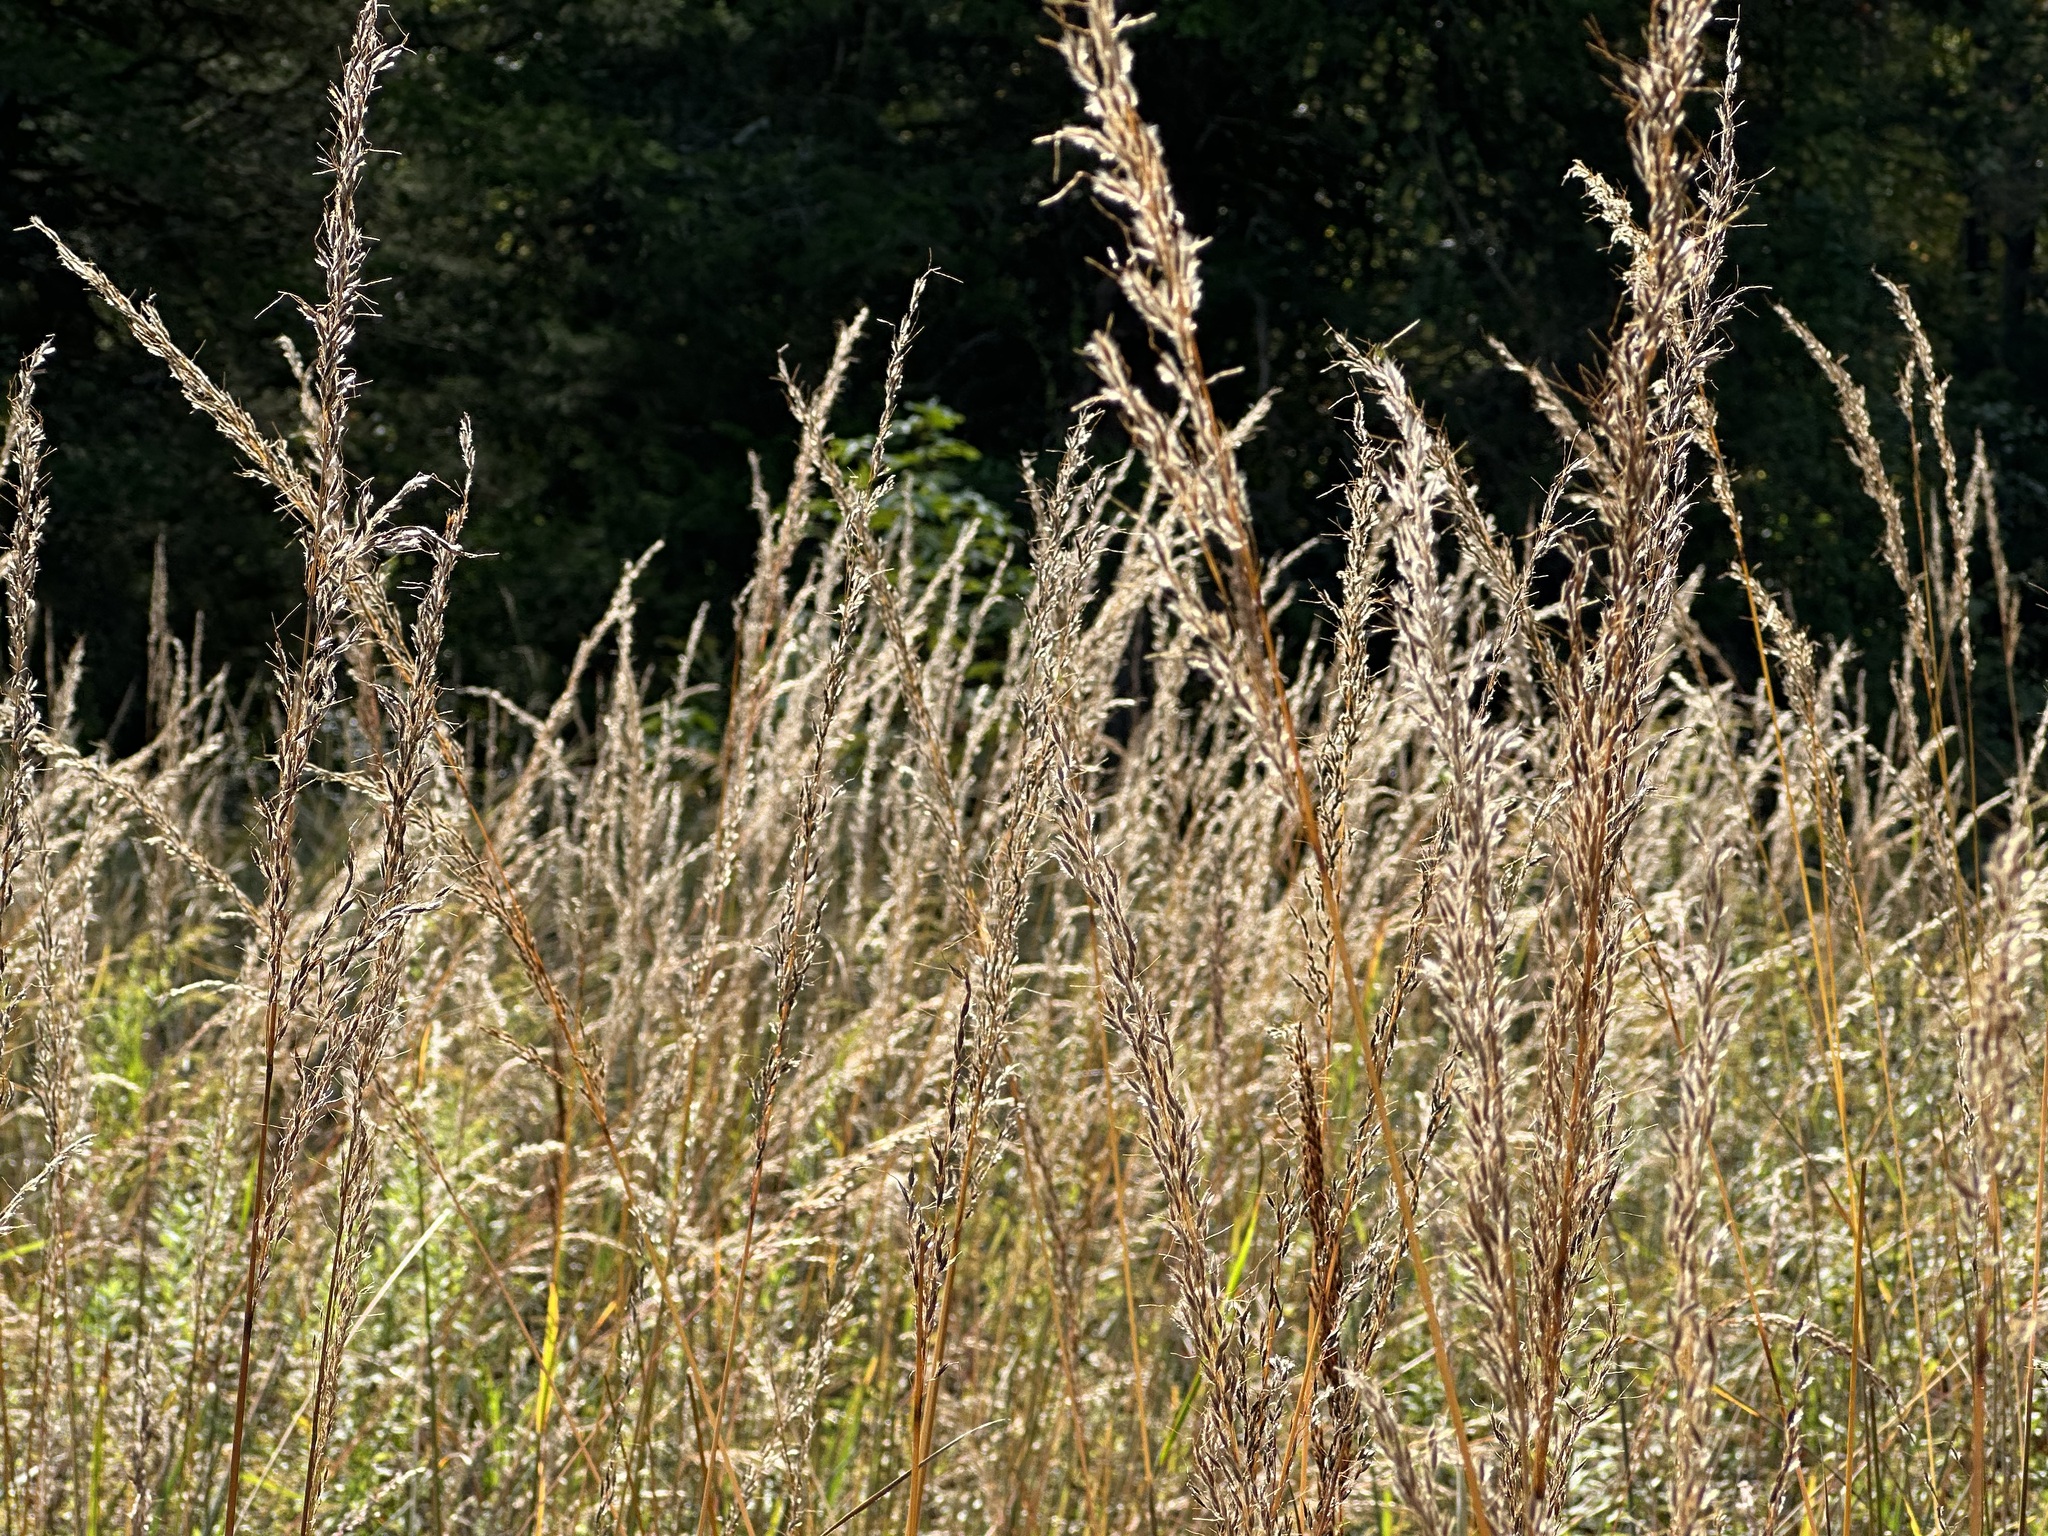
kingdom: Plantae
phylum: Tracheophyta
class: Liliopsida
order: Poales
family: Poaceae
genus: Sorghastrum
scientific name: Sorghastrum nutans
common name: Indian grass
